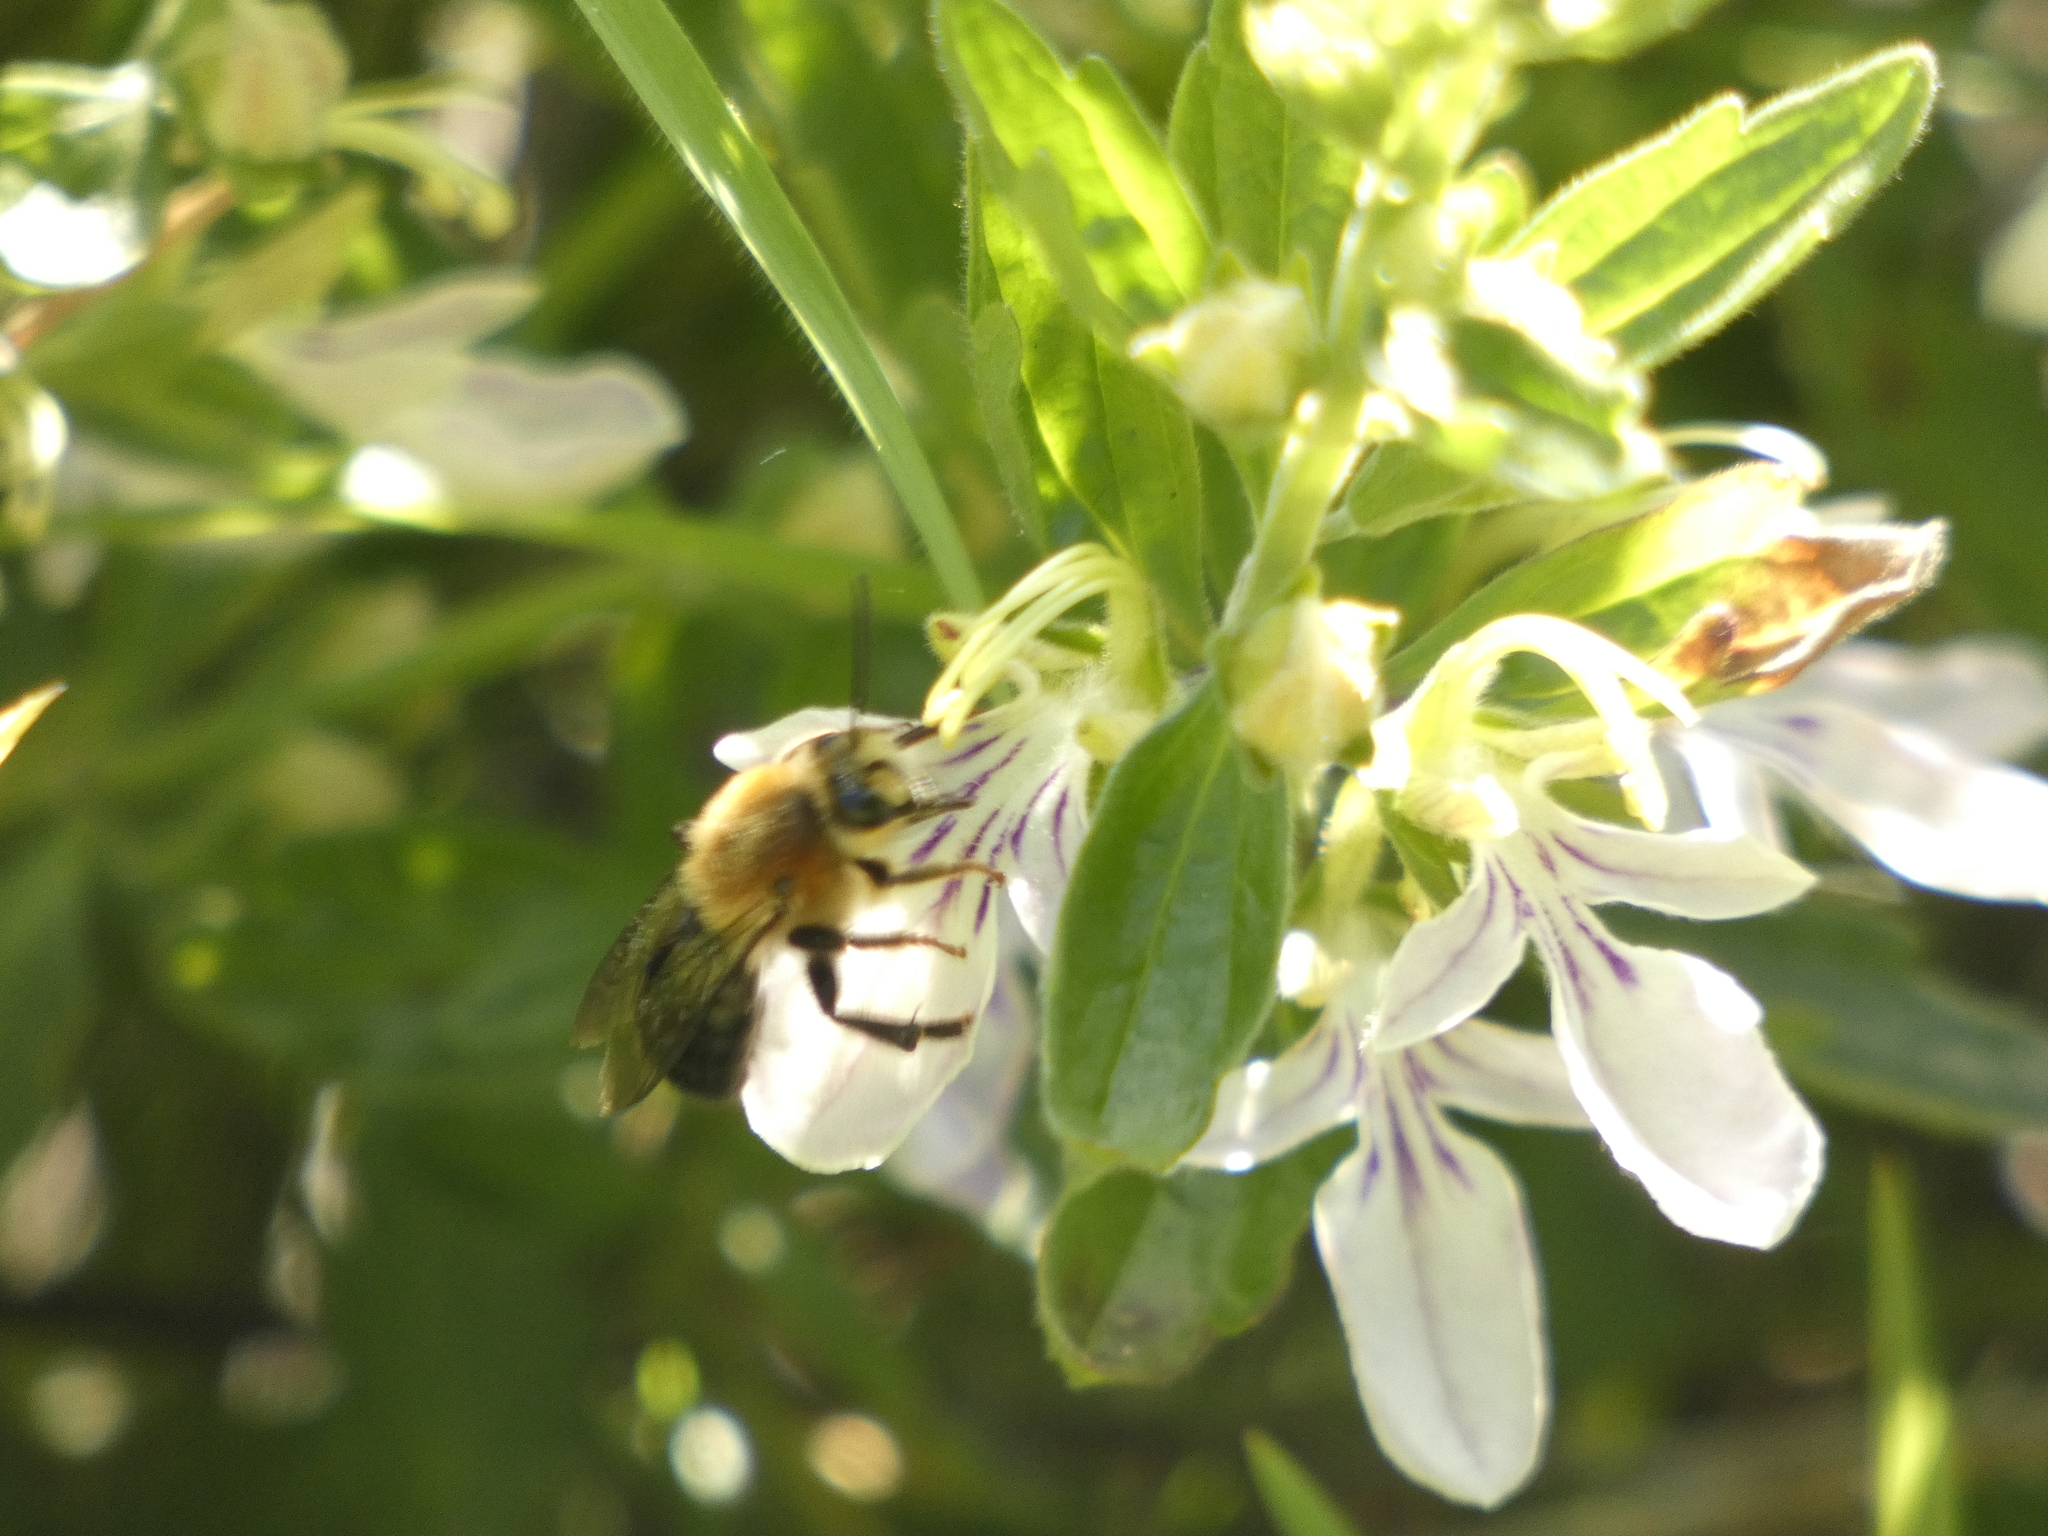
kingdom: Animalia
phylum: Arthropoda
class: Insecta
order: Hymenoptera
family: Colletidae
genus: Cadeguala
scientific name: Cadeguala occidentalis
